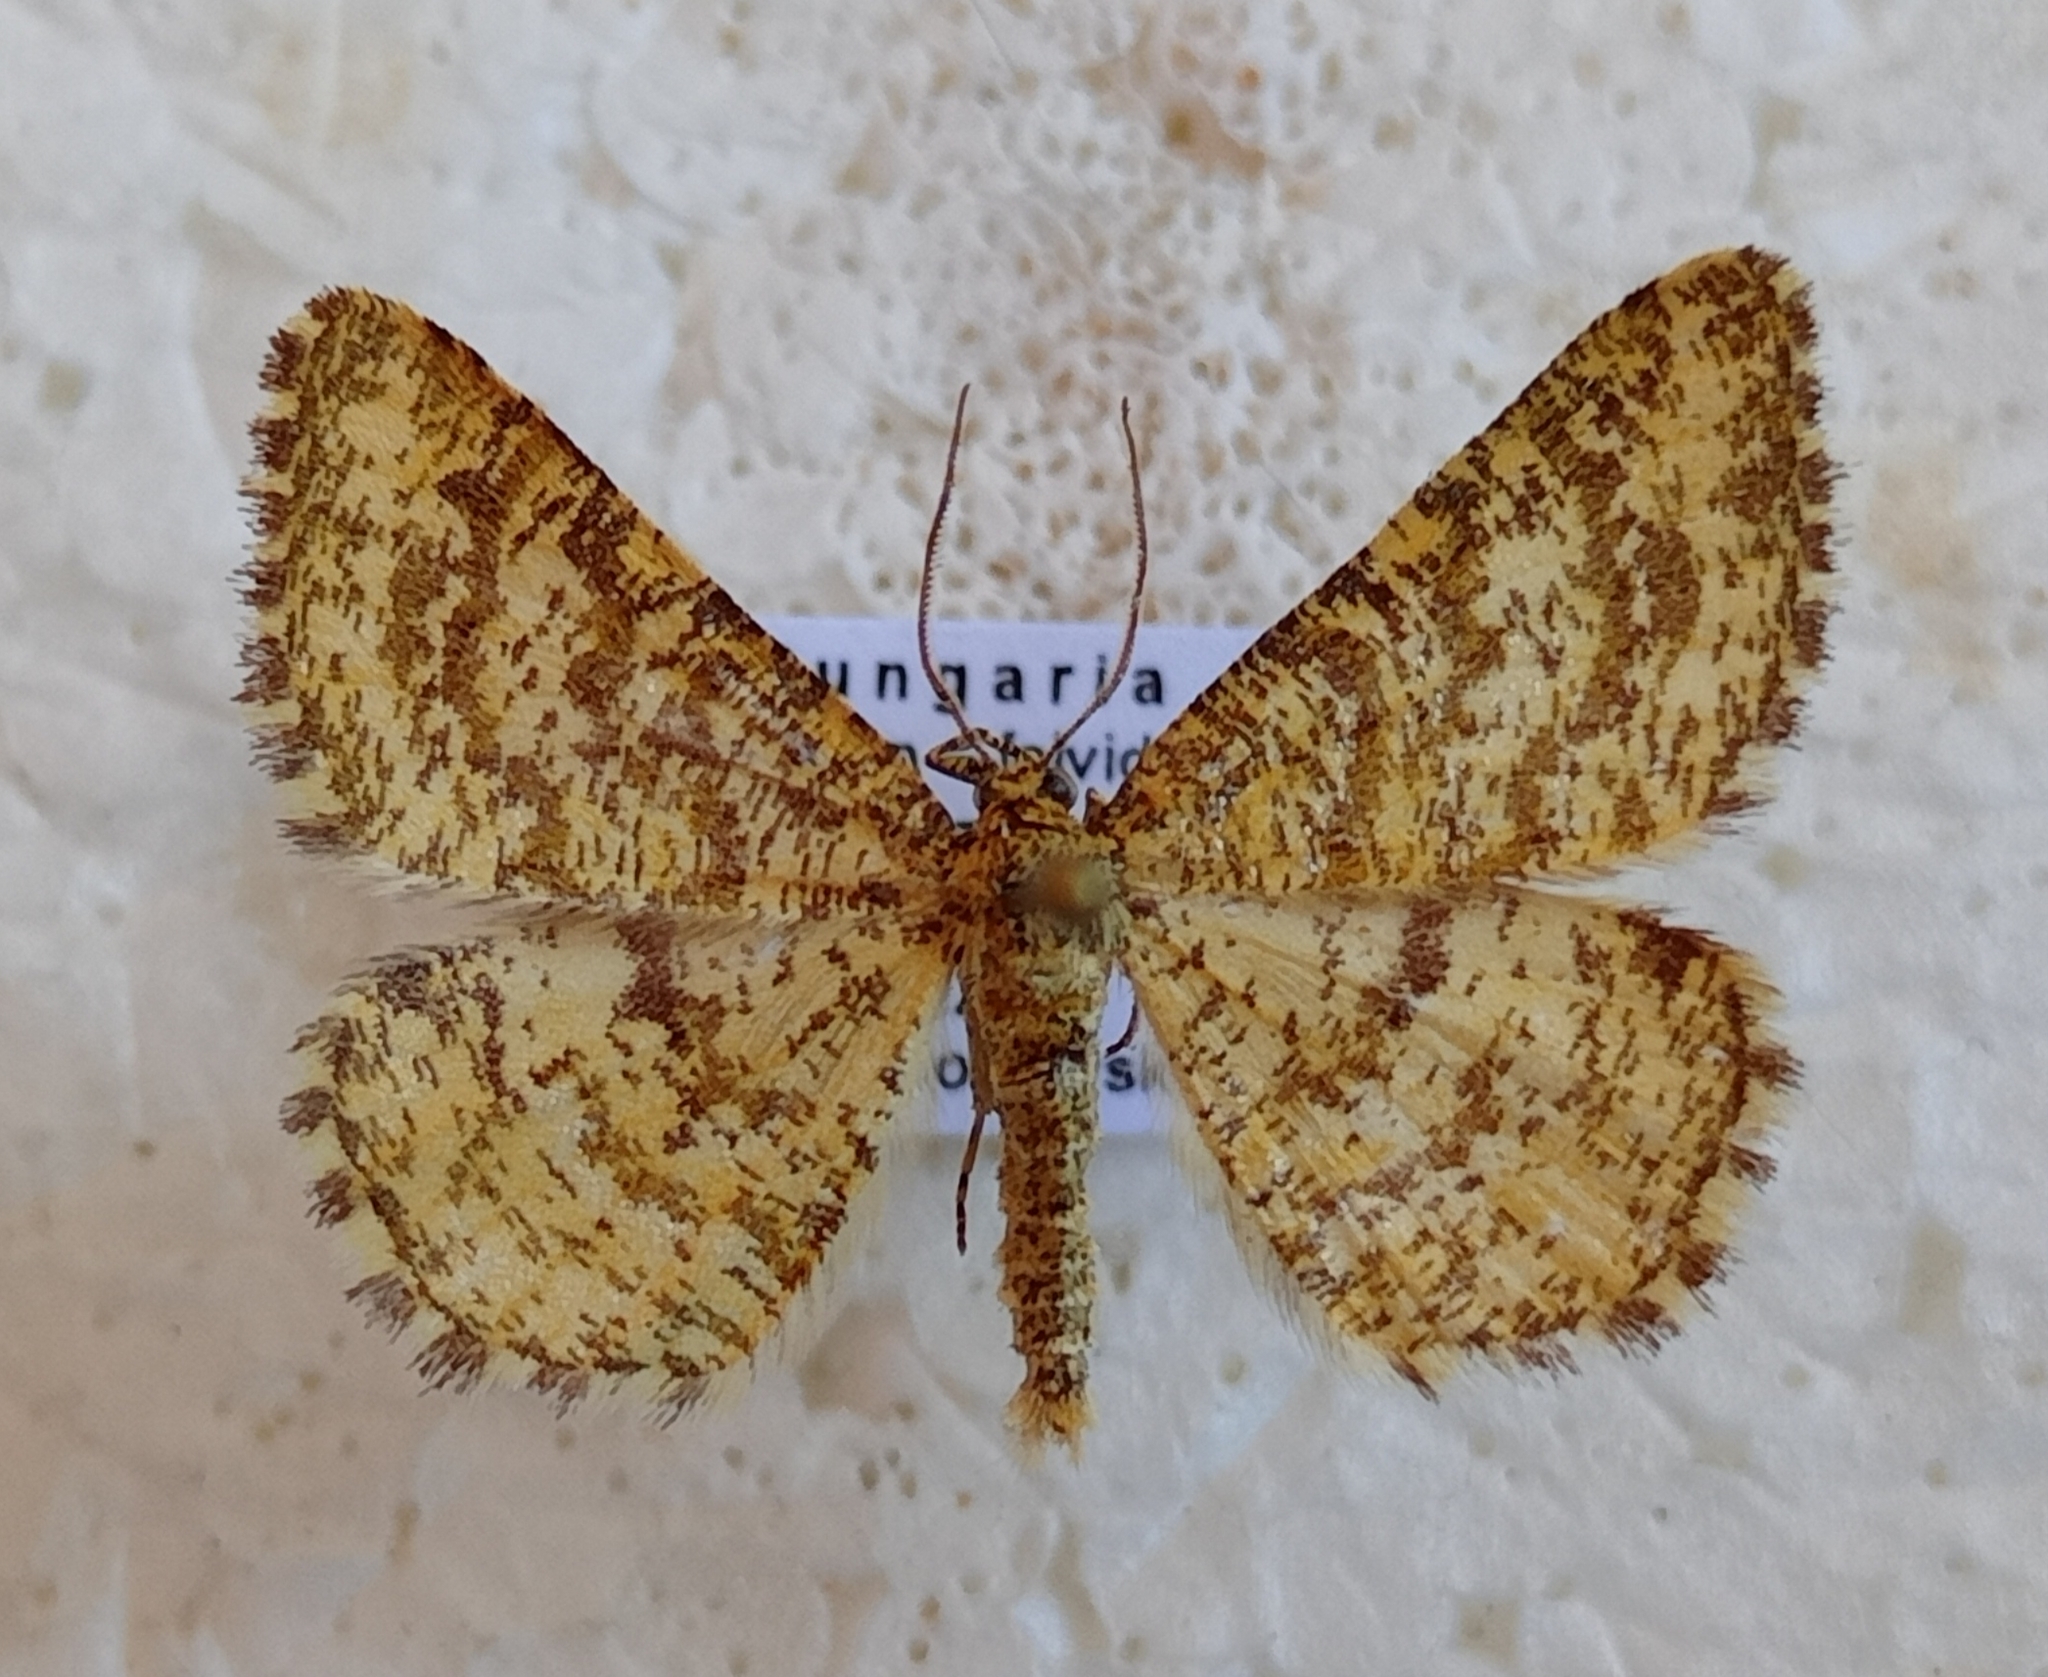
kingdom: Animalia
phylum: Arthropoda
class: Insecta
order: Lepidoptera
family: Geometridae
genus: Heliomata
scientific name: Heliomata glarearia
